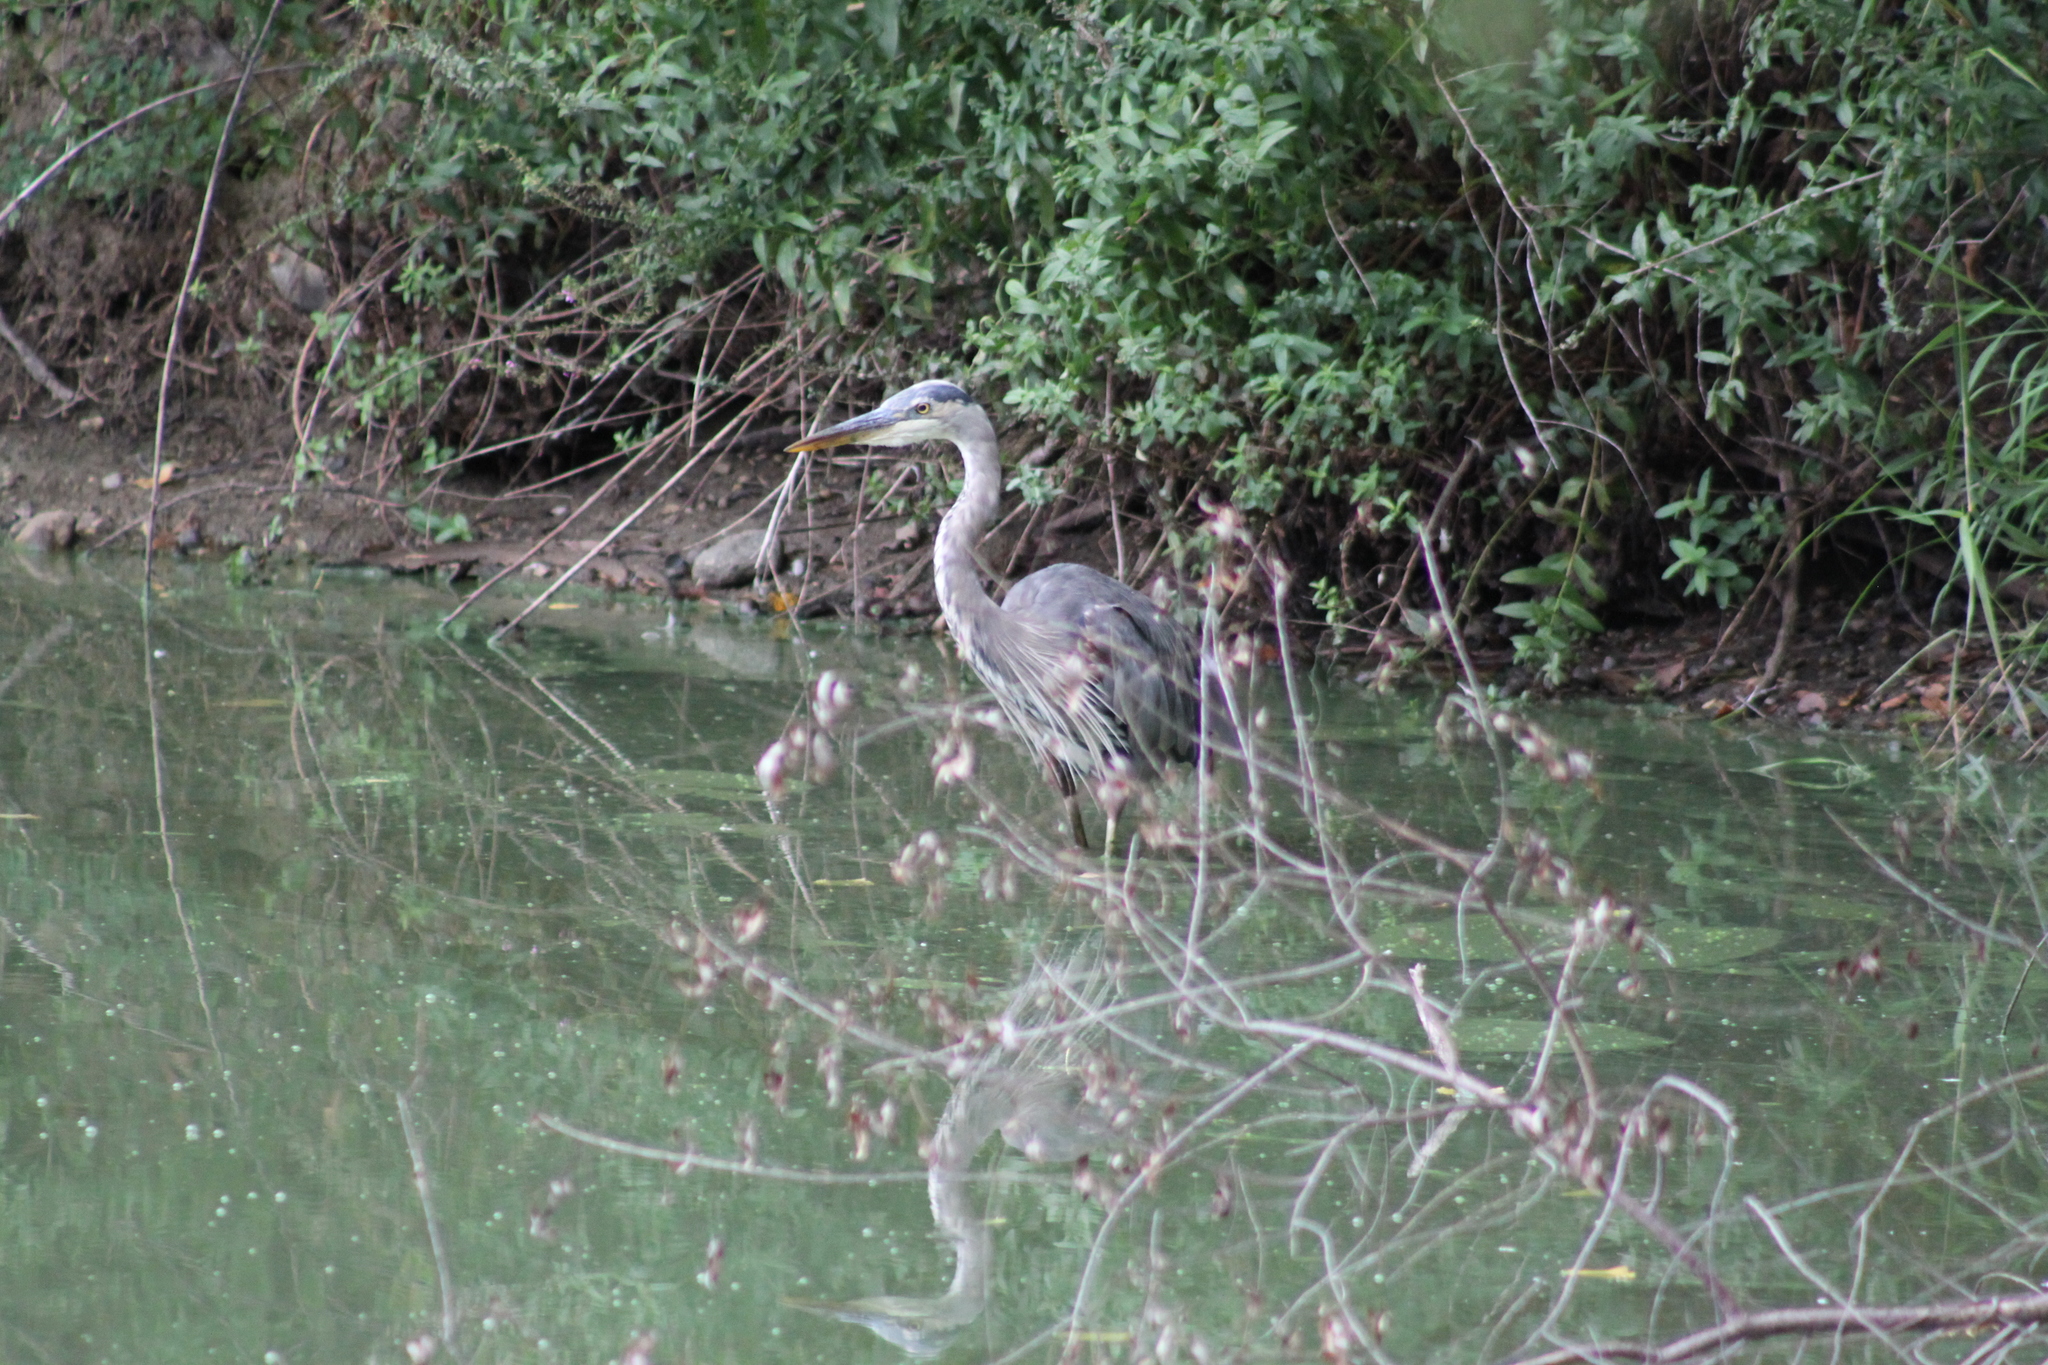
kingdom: Animalia
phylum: Chordata
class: Aves
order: Pelecaniformes
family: Ardeidae
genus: Ardea
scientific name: Ardea herodias
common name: Great blue heron
